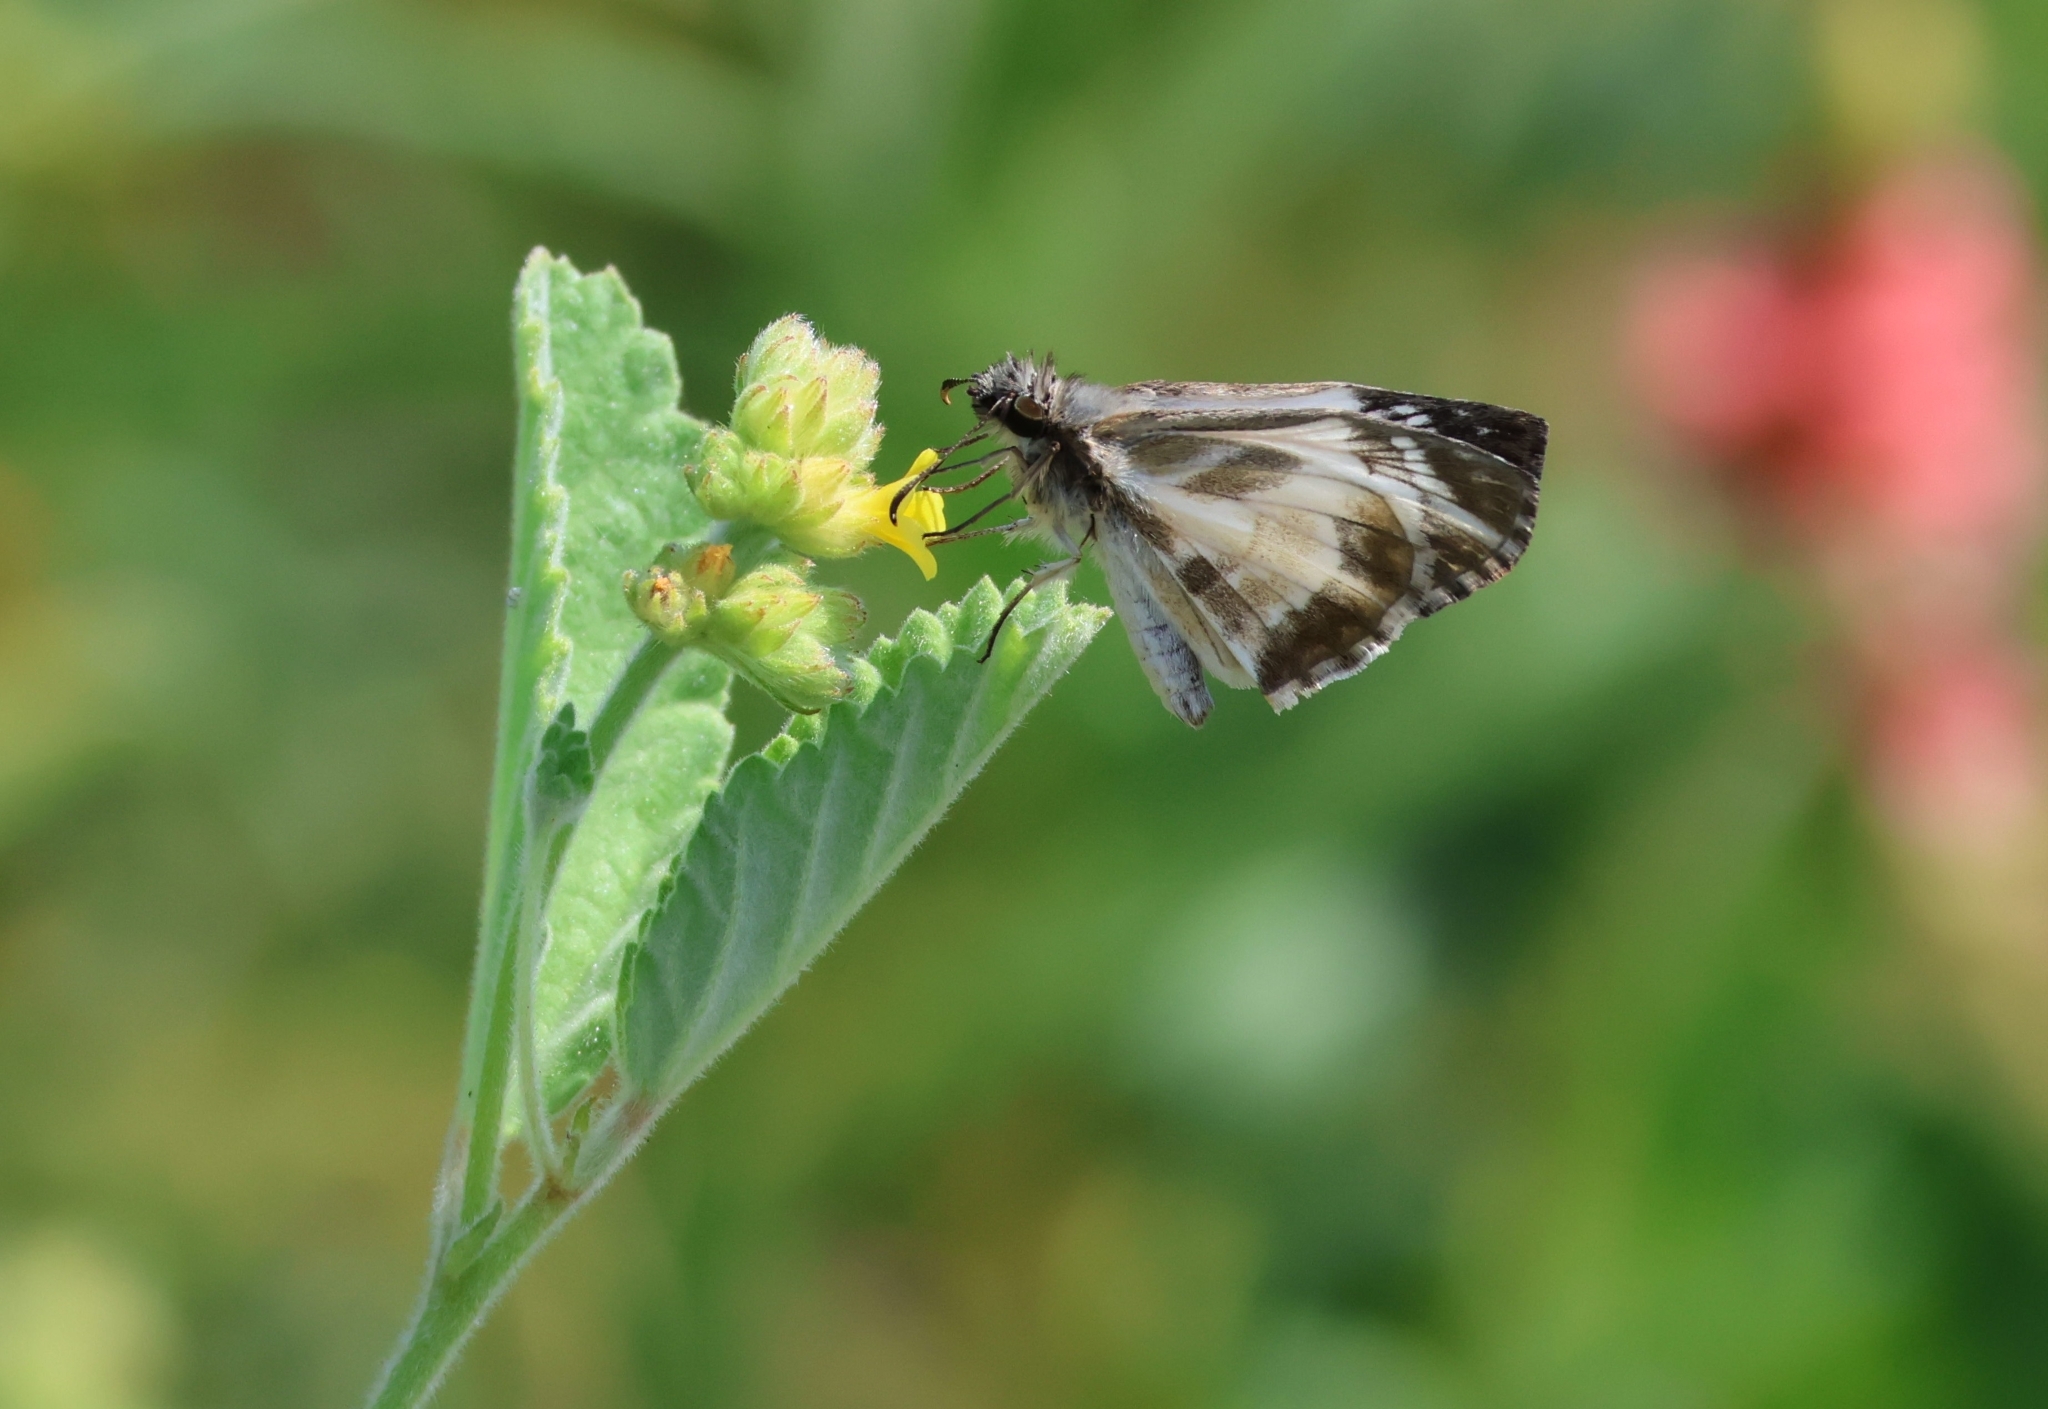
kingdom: Animalia
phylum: Arthropoda
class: Insecta
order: Lepidoptera
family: Hesperiidae
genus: Heliopetes
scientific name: Heliopetes macaira
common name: Turk's-cap white-skipper
